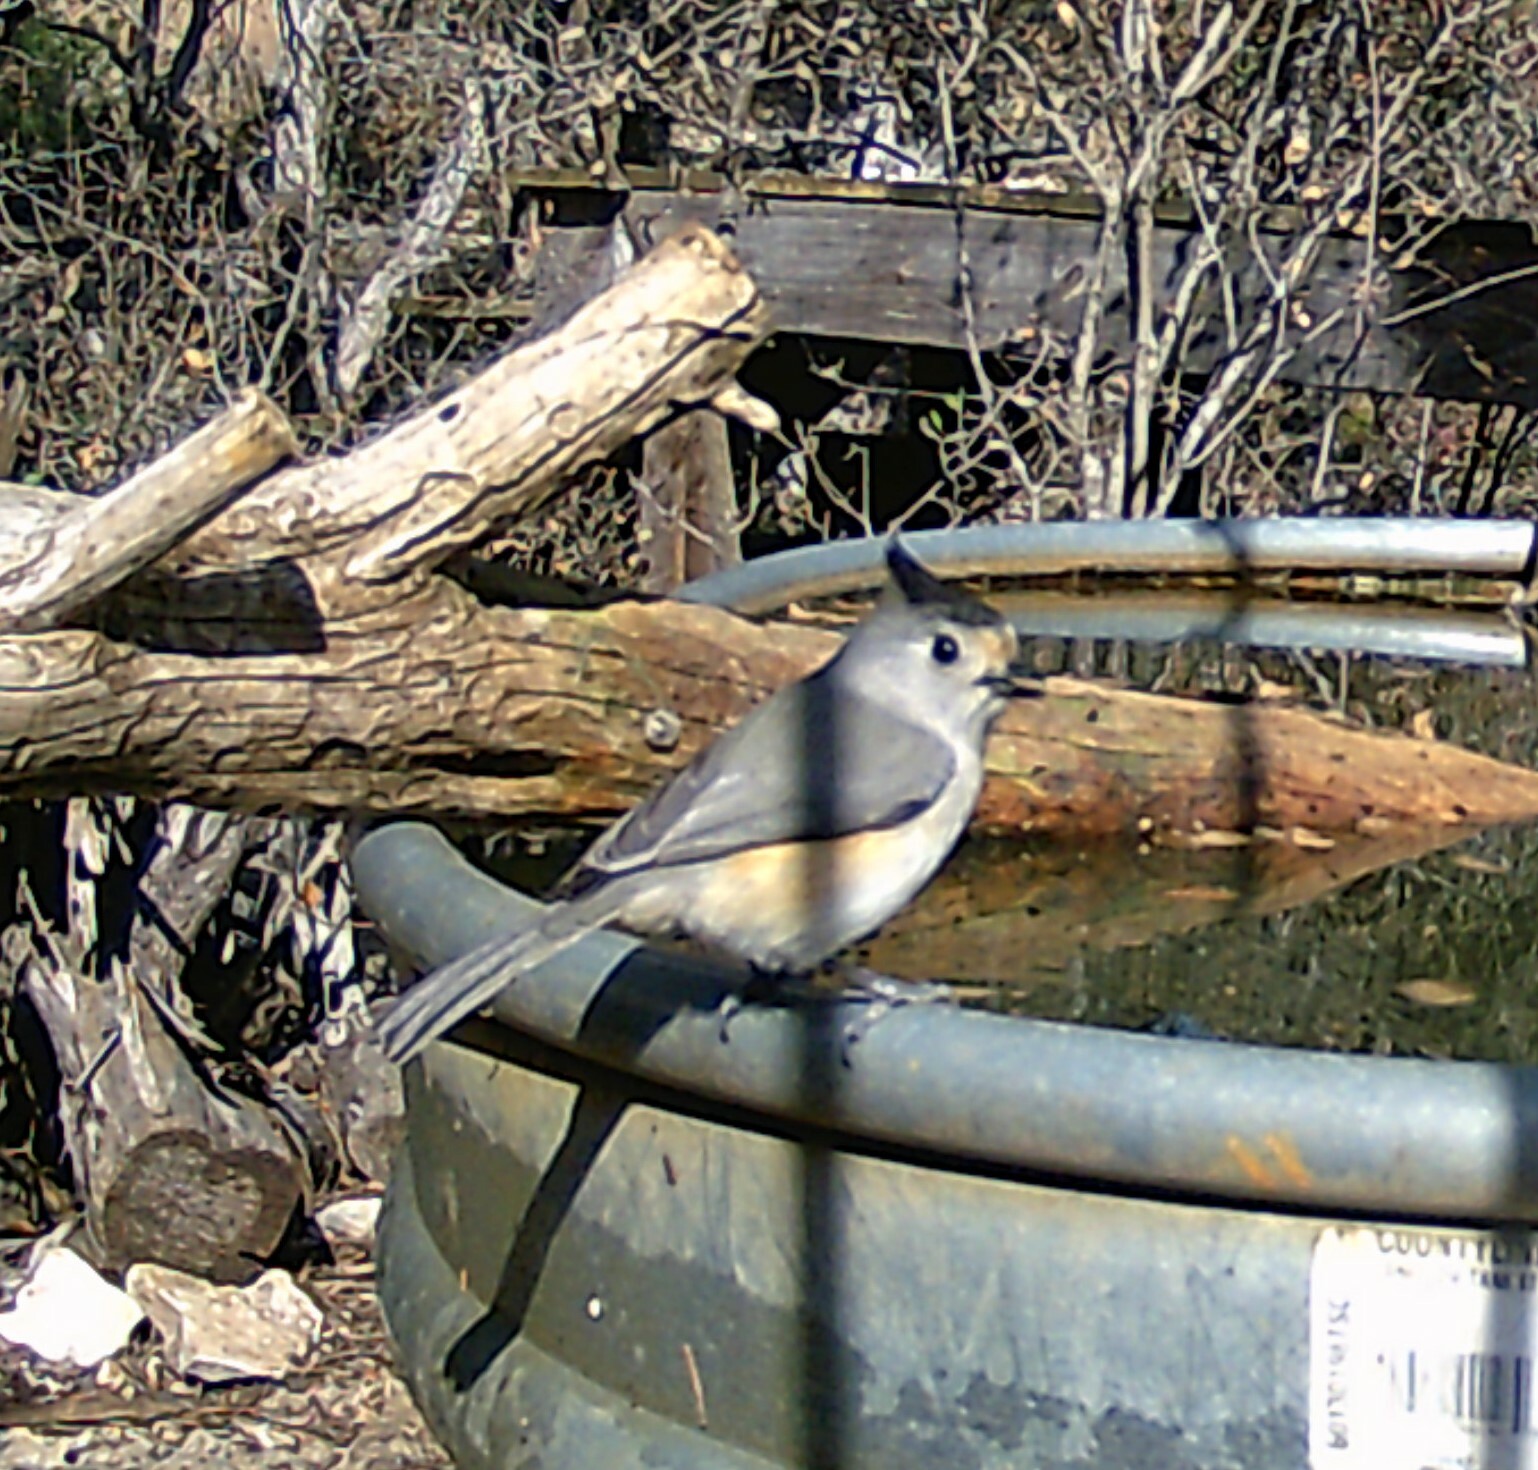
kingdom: Animalia
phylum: Chordata
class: Aves
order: Passeriformes
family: Paridae
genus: Baeolophus
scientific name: Baeolophus atricristatus
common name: Black-crested titmouse
